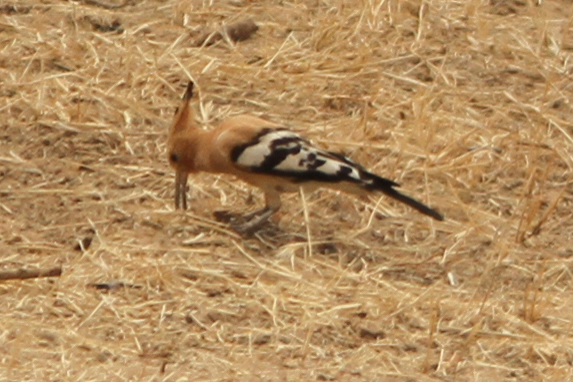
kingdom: Animalia
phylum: Chordata
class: Aves
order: Bucerotiformes
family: Upupidae
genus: Upupa
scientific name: Upupa epops
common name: Eurasian hoopoe
